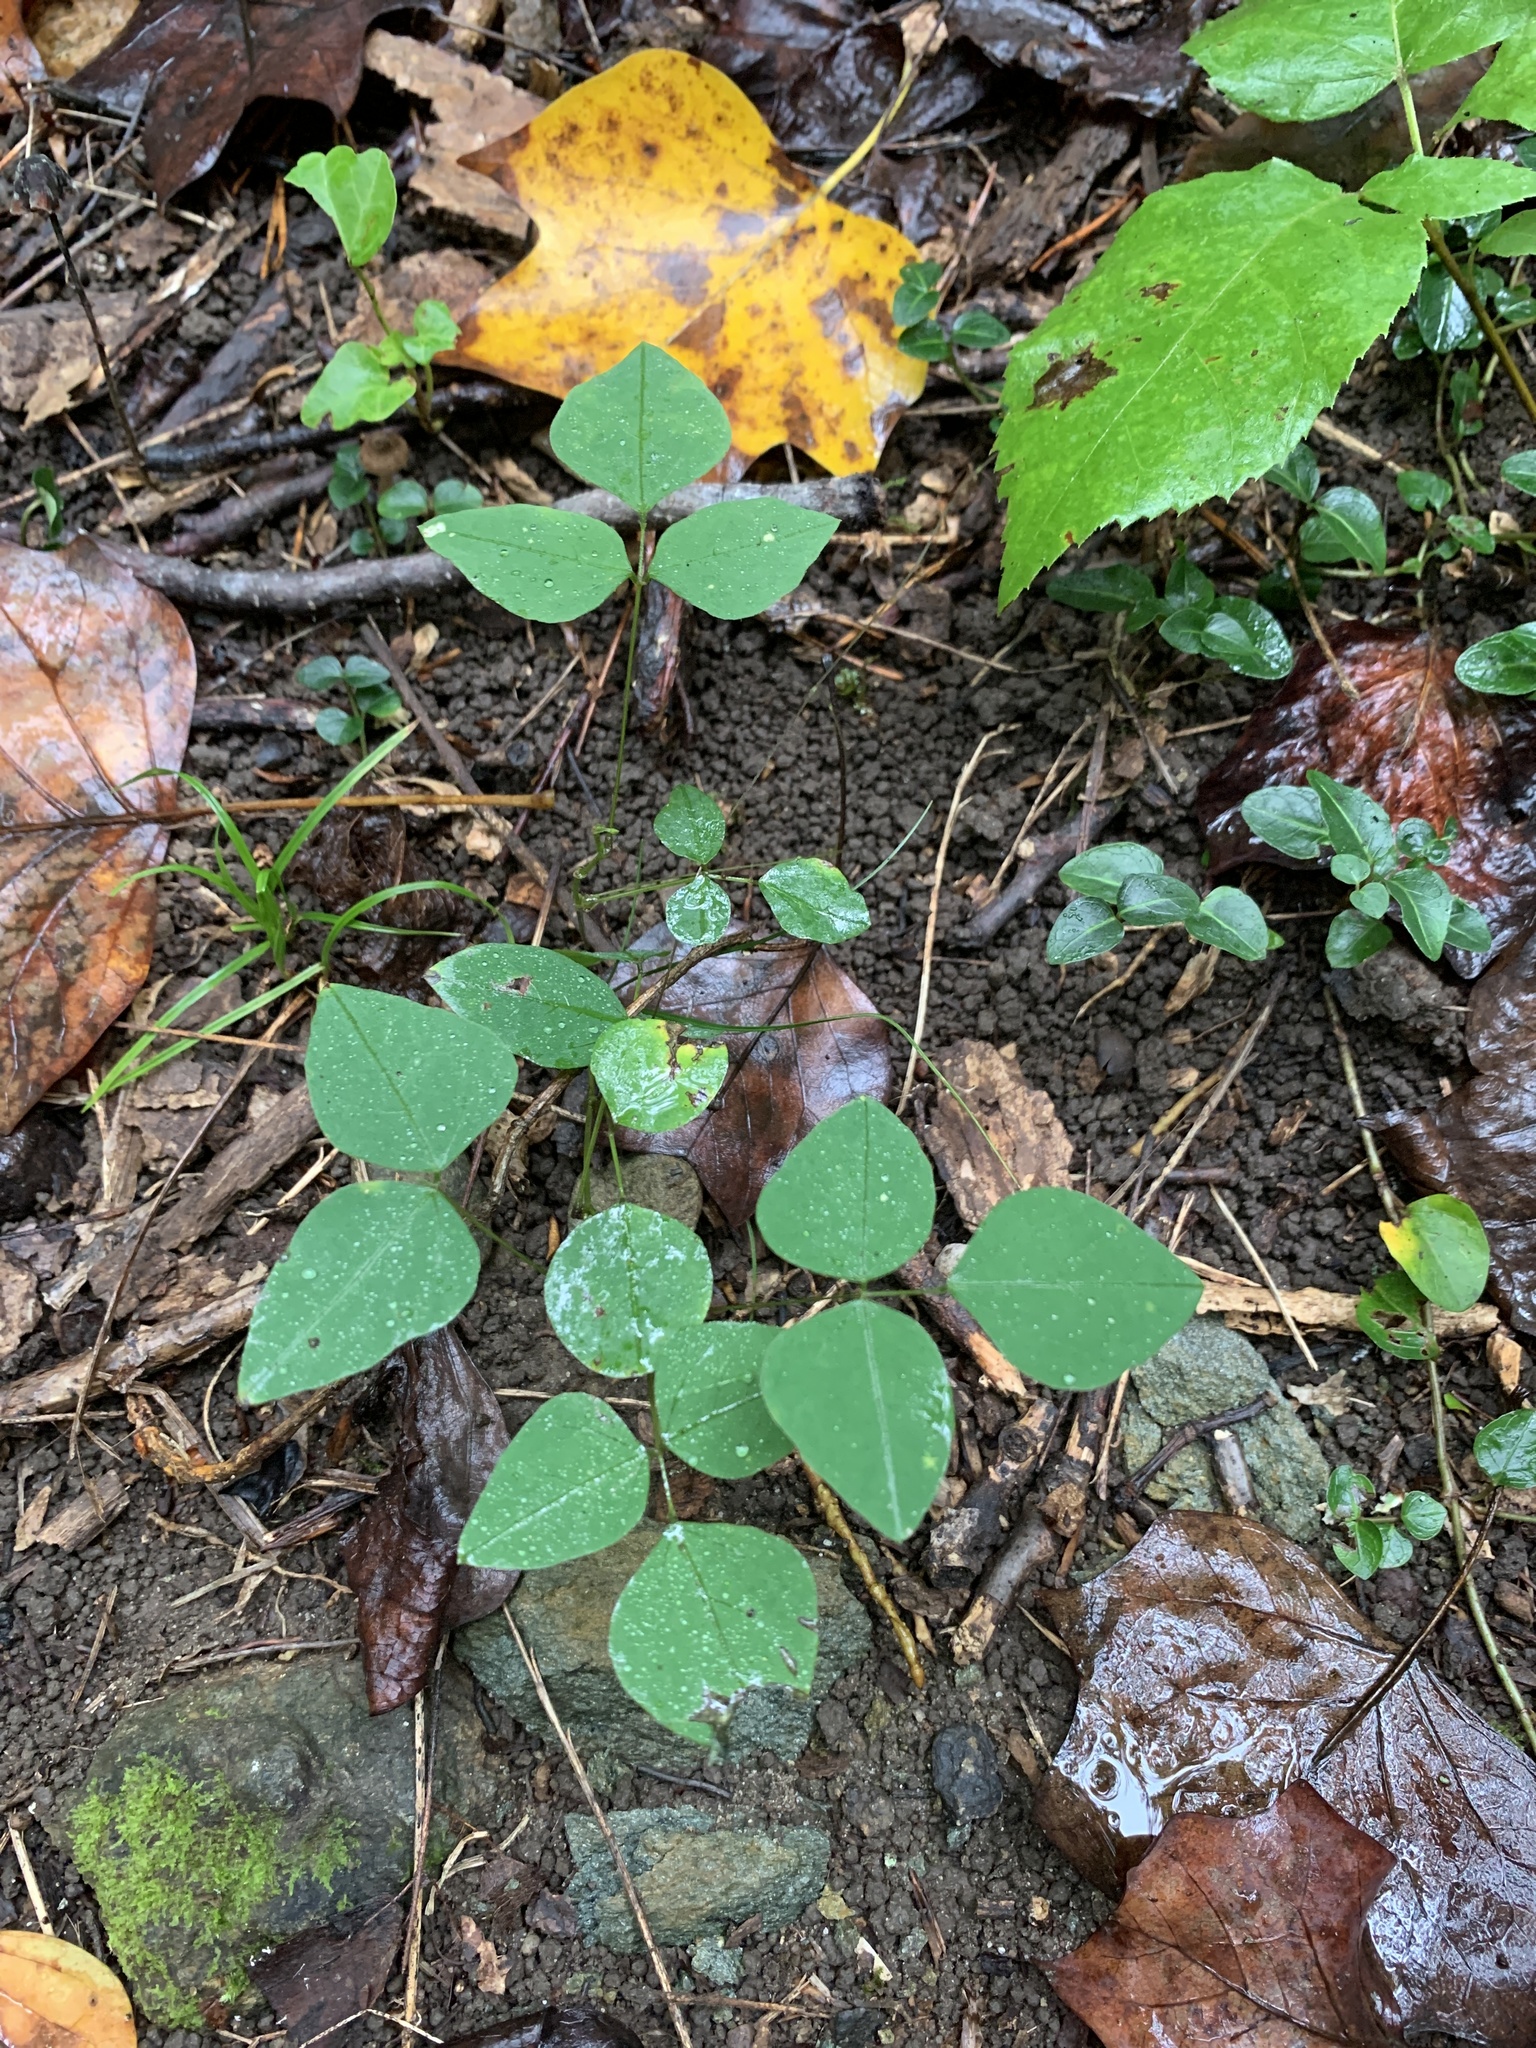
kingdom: Plantae
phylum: Tracheophyta
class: Magnoliopsida
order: Fabales
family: Fabaceae
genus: Amphicarpaea
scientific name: Amphicarpaea bracteata
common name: American hog peanut
